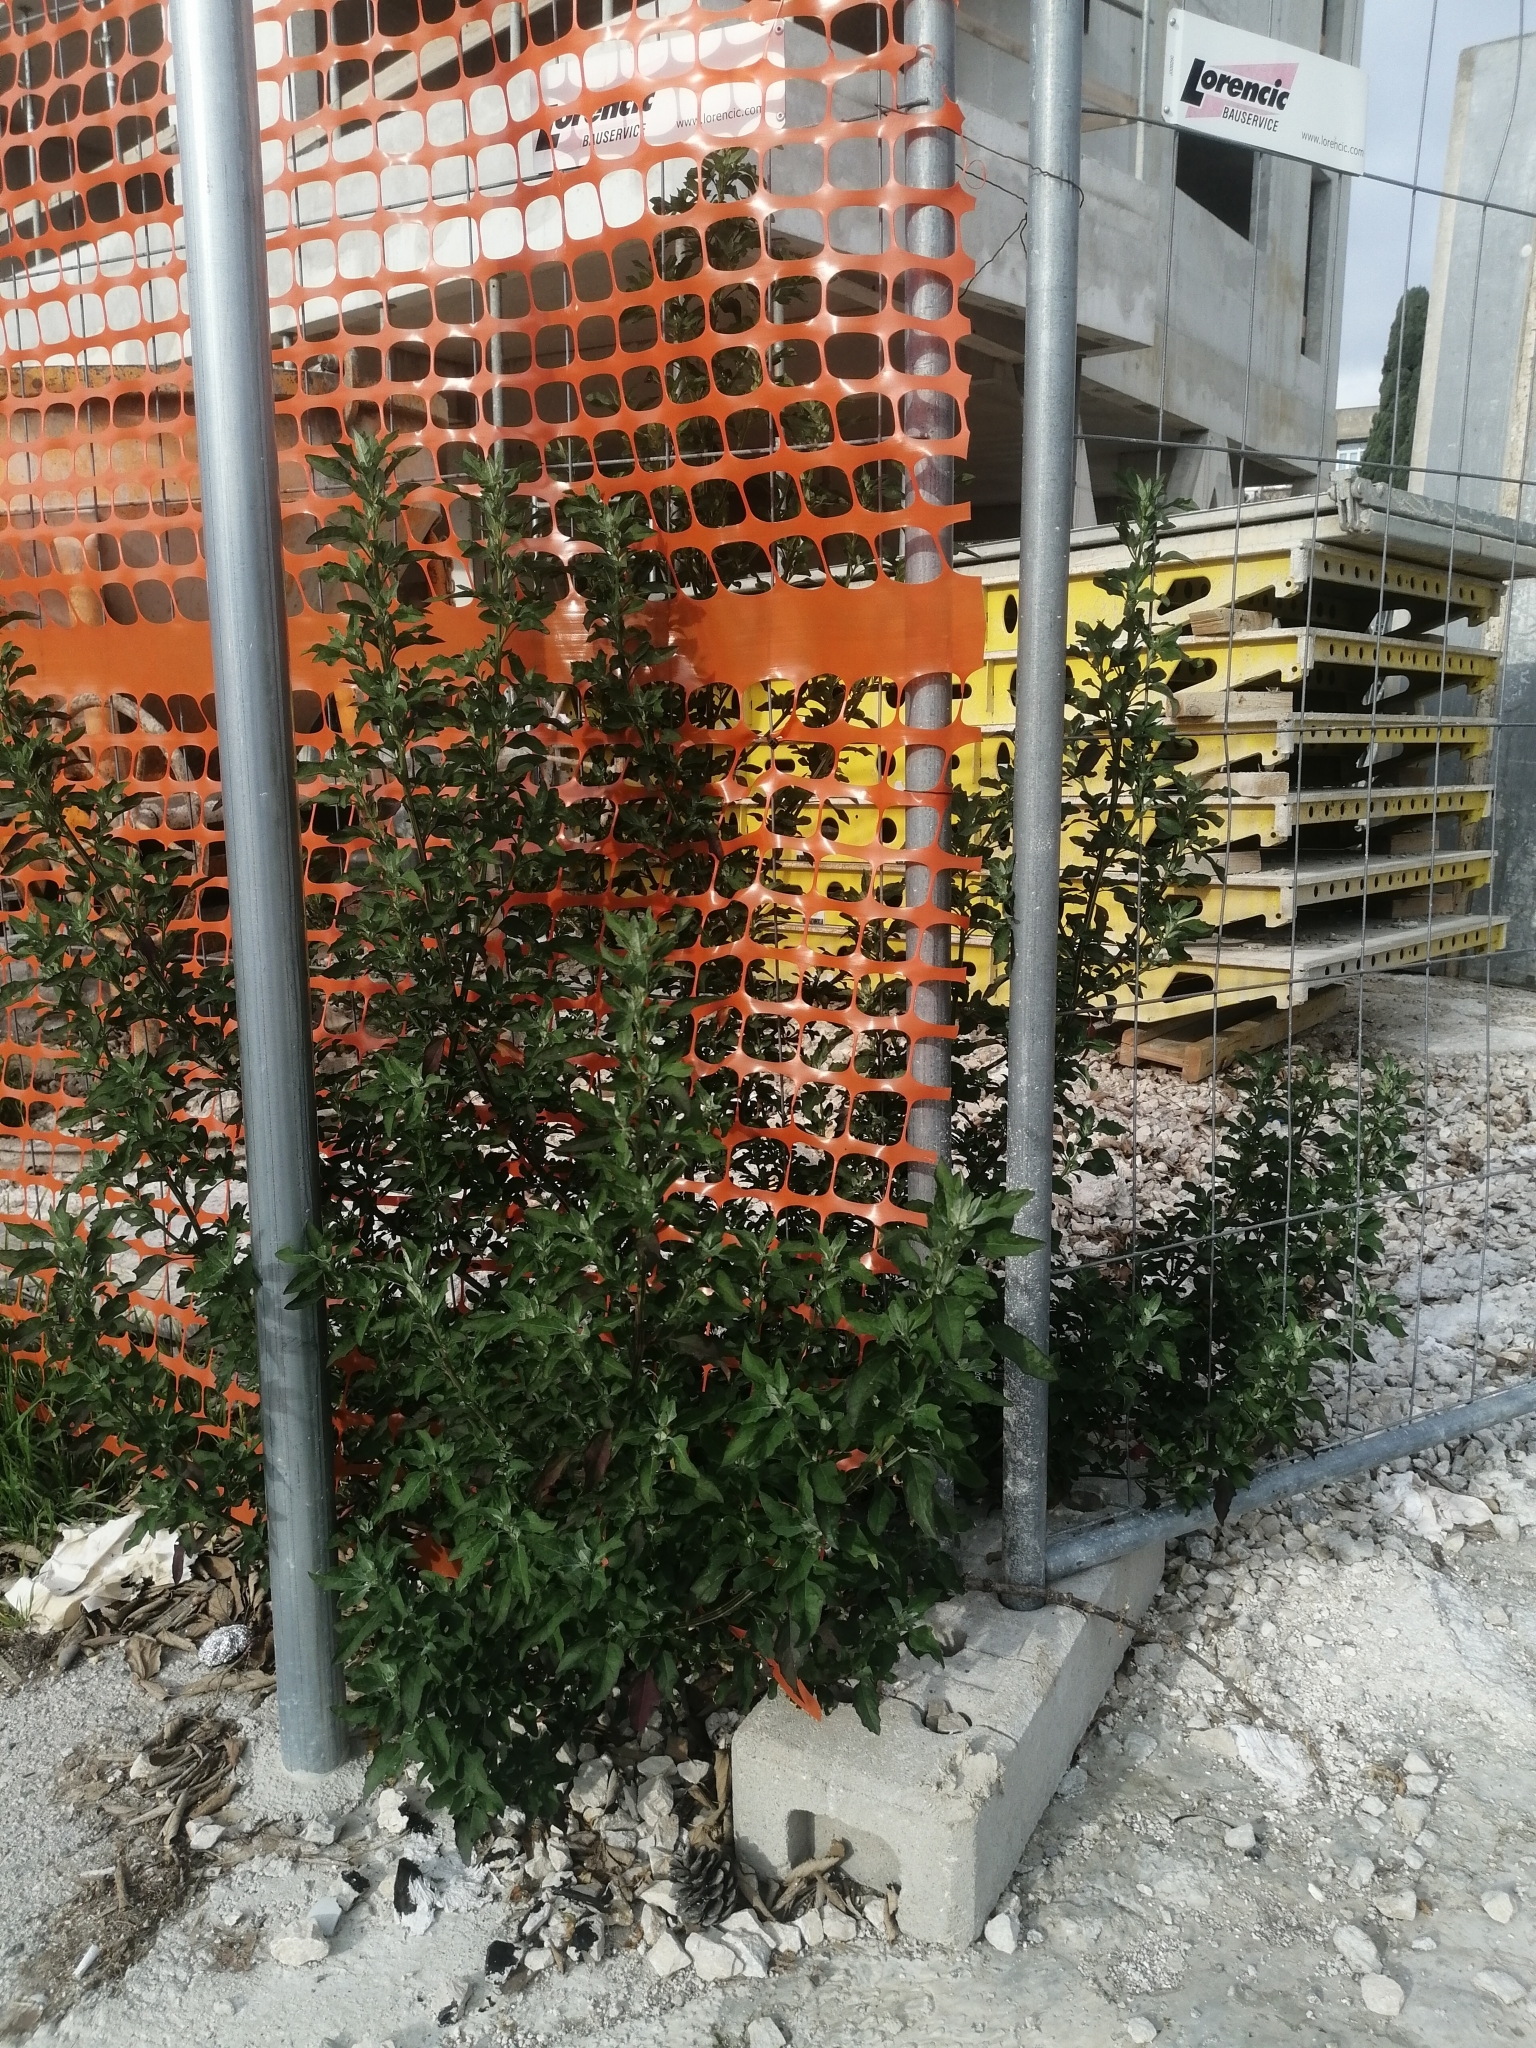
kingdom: Plantae
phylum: Tracheophyta
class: Magnoliopsida
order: Caryophyllales
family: Amaranthaceae
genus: Chenopodium
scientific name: Chenopodium album
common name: Fat-hen
